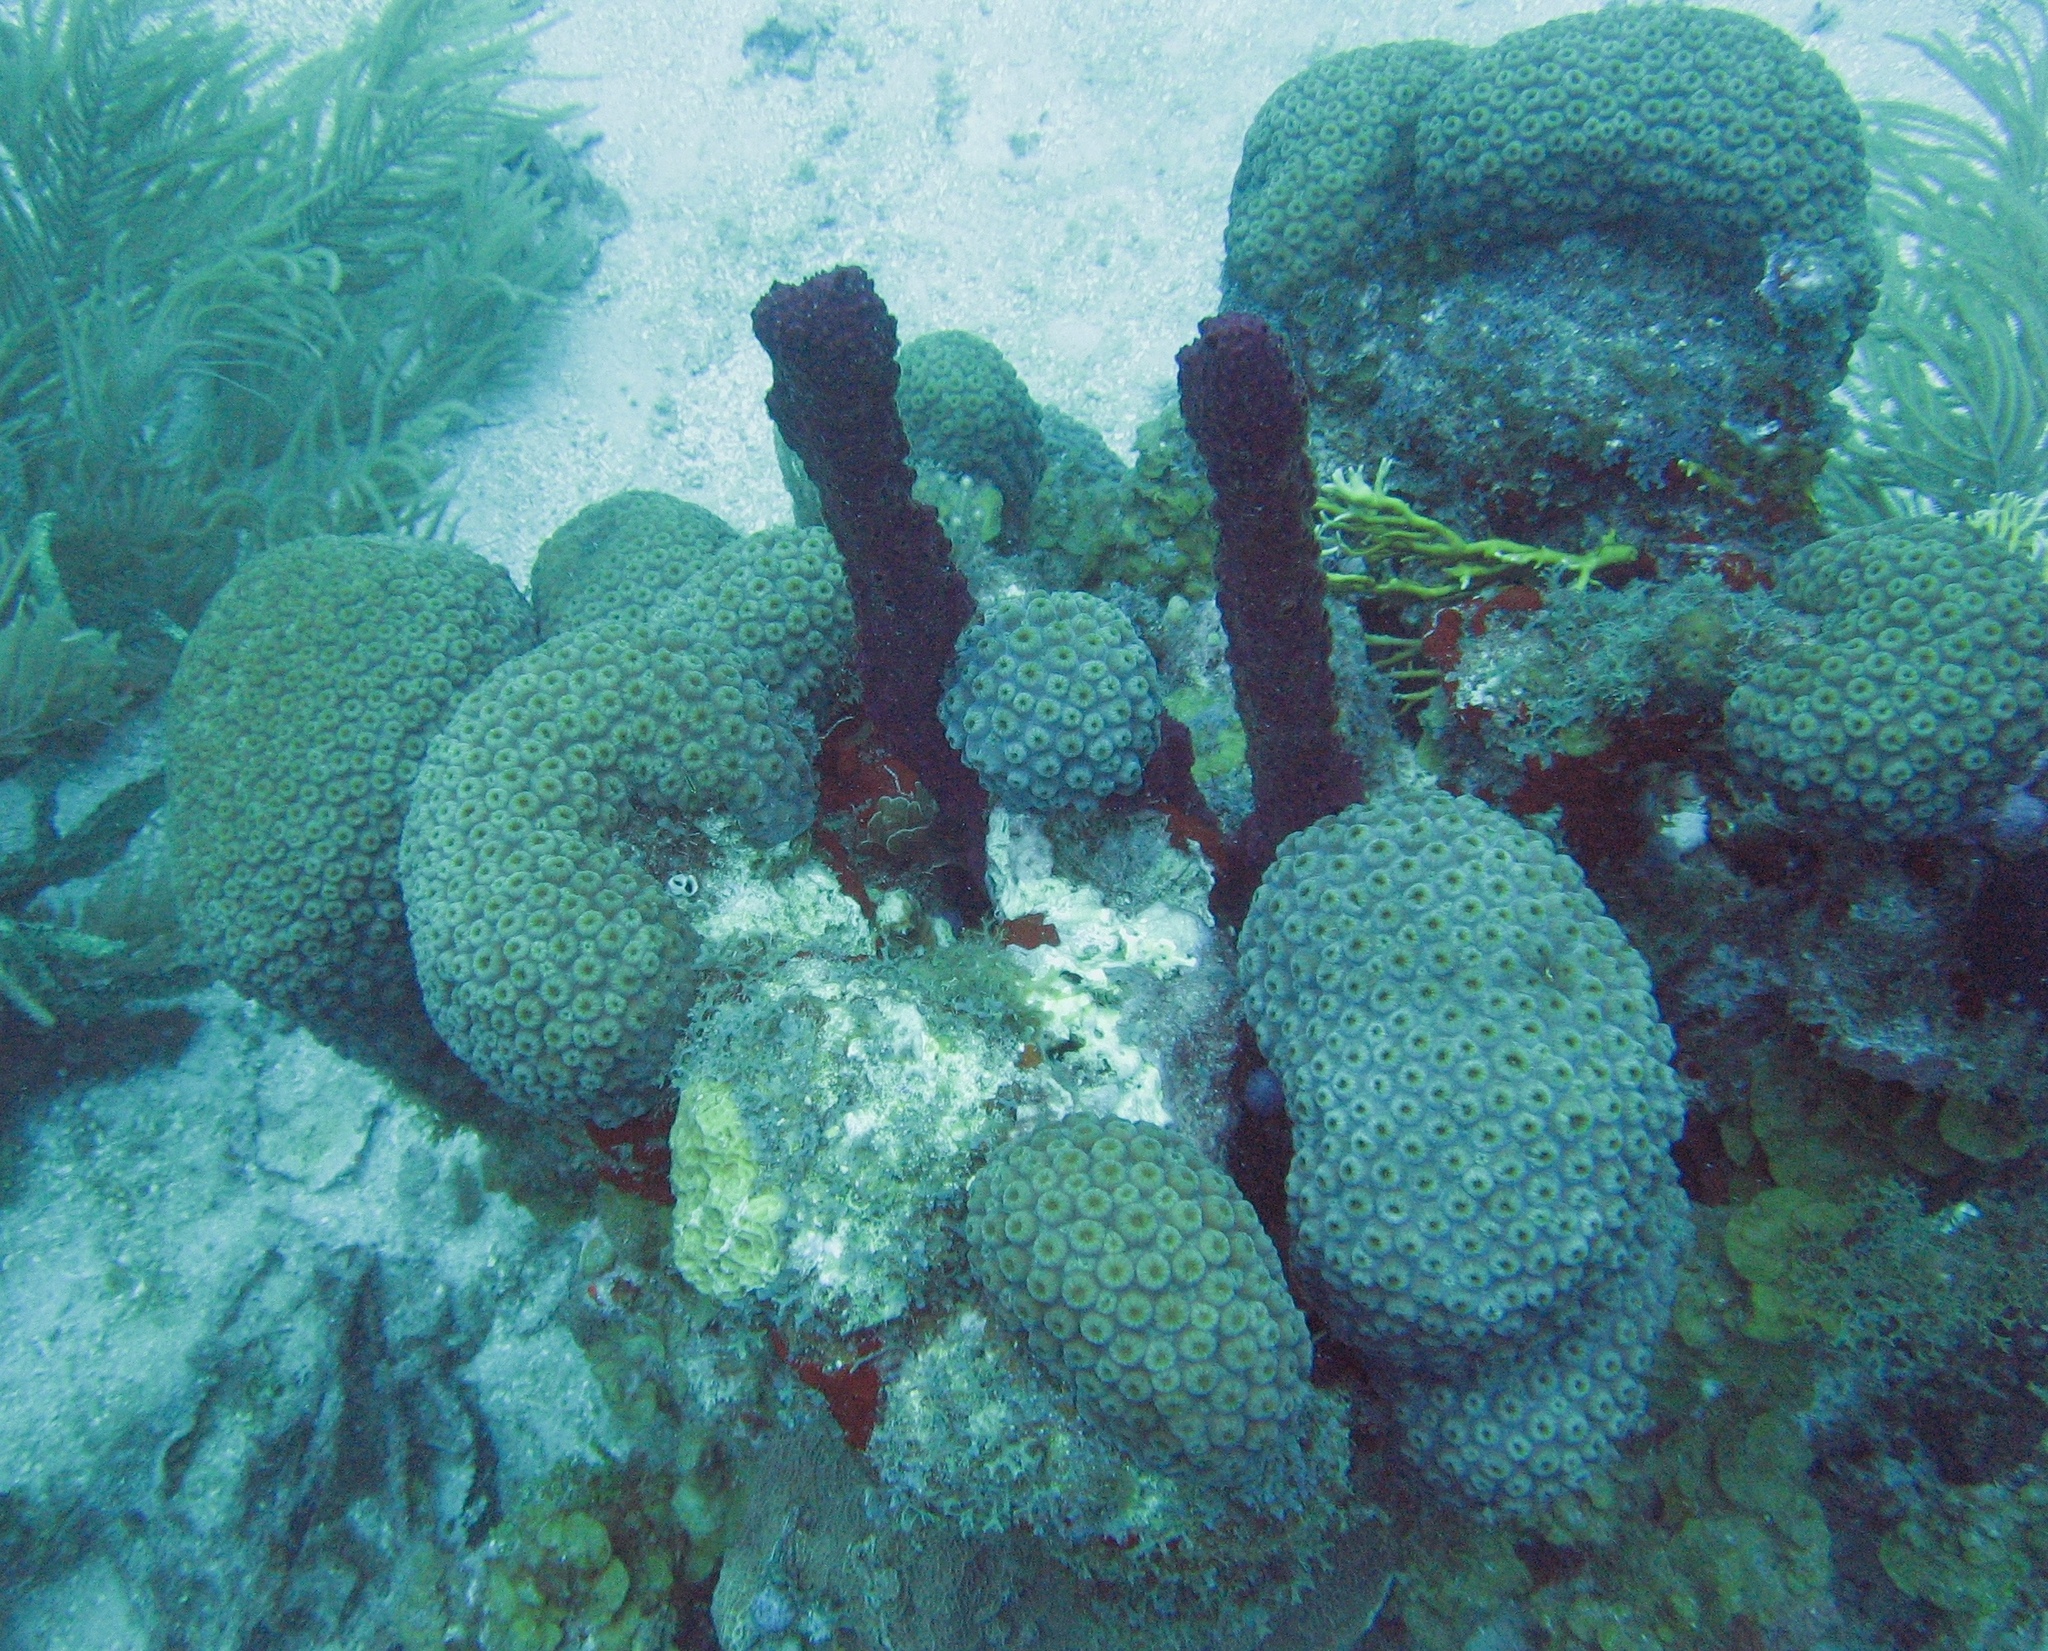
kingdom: Animalia
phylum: Cnidaria
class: Anthozoa
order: Scleractinia
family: Merulinidae
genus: Orbicella
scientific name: Orbicella annularis
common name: Boulder star coral
